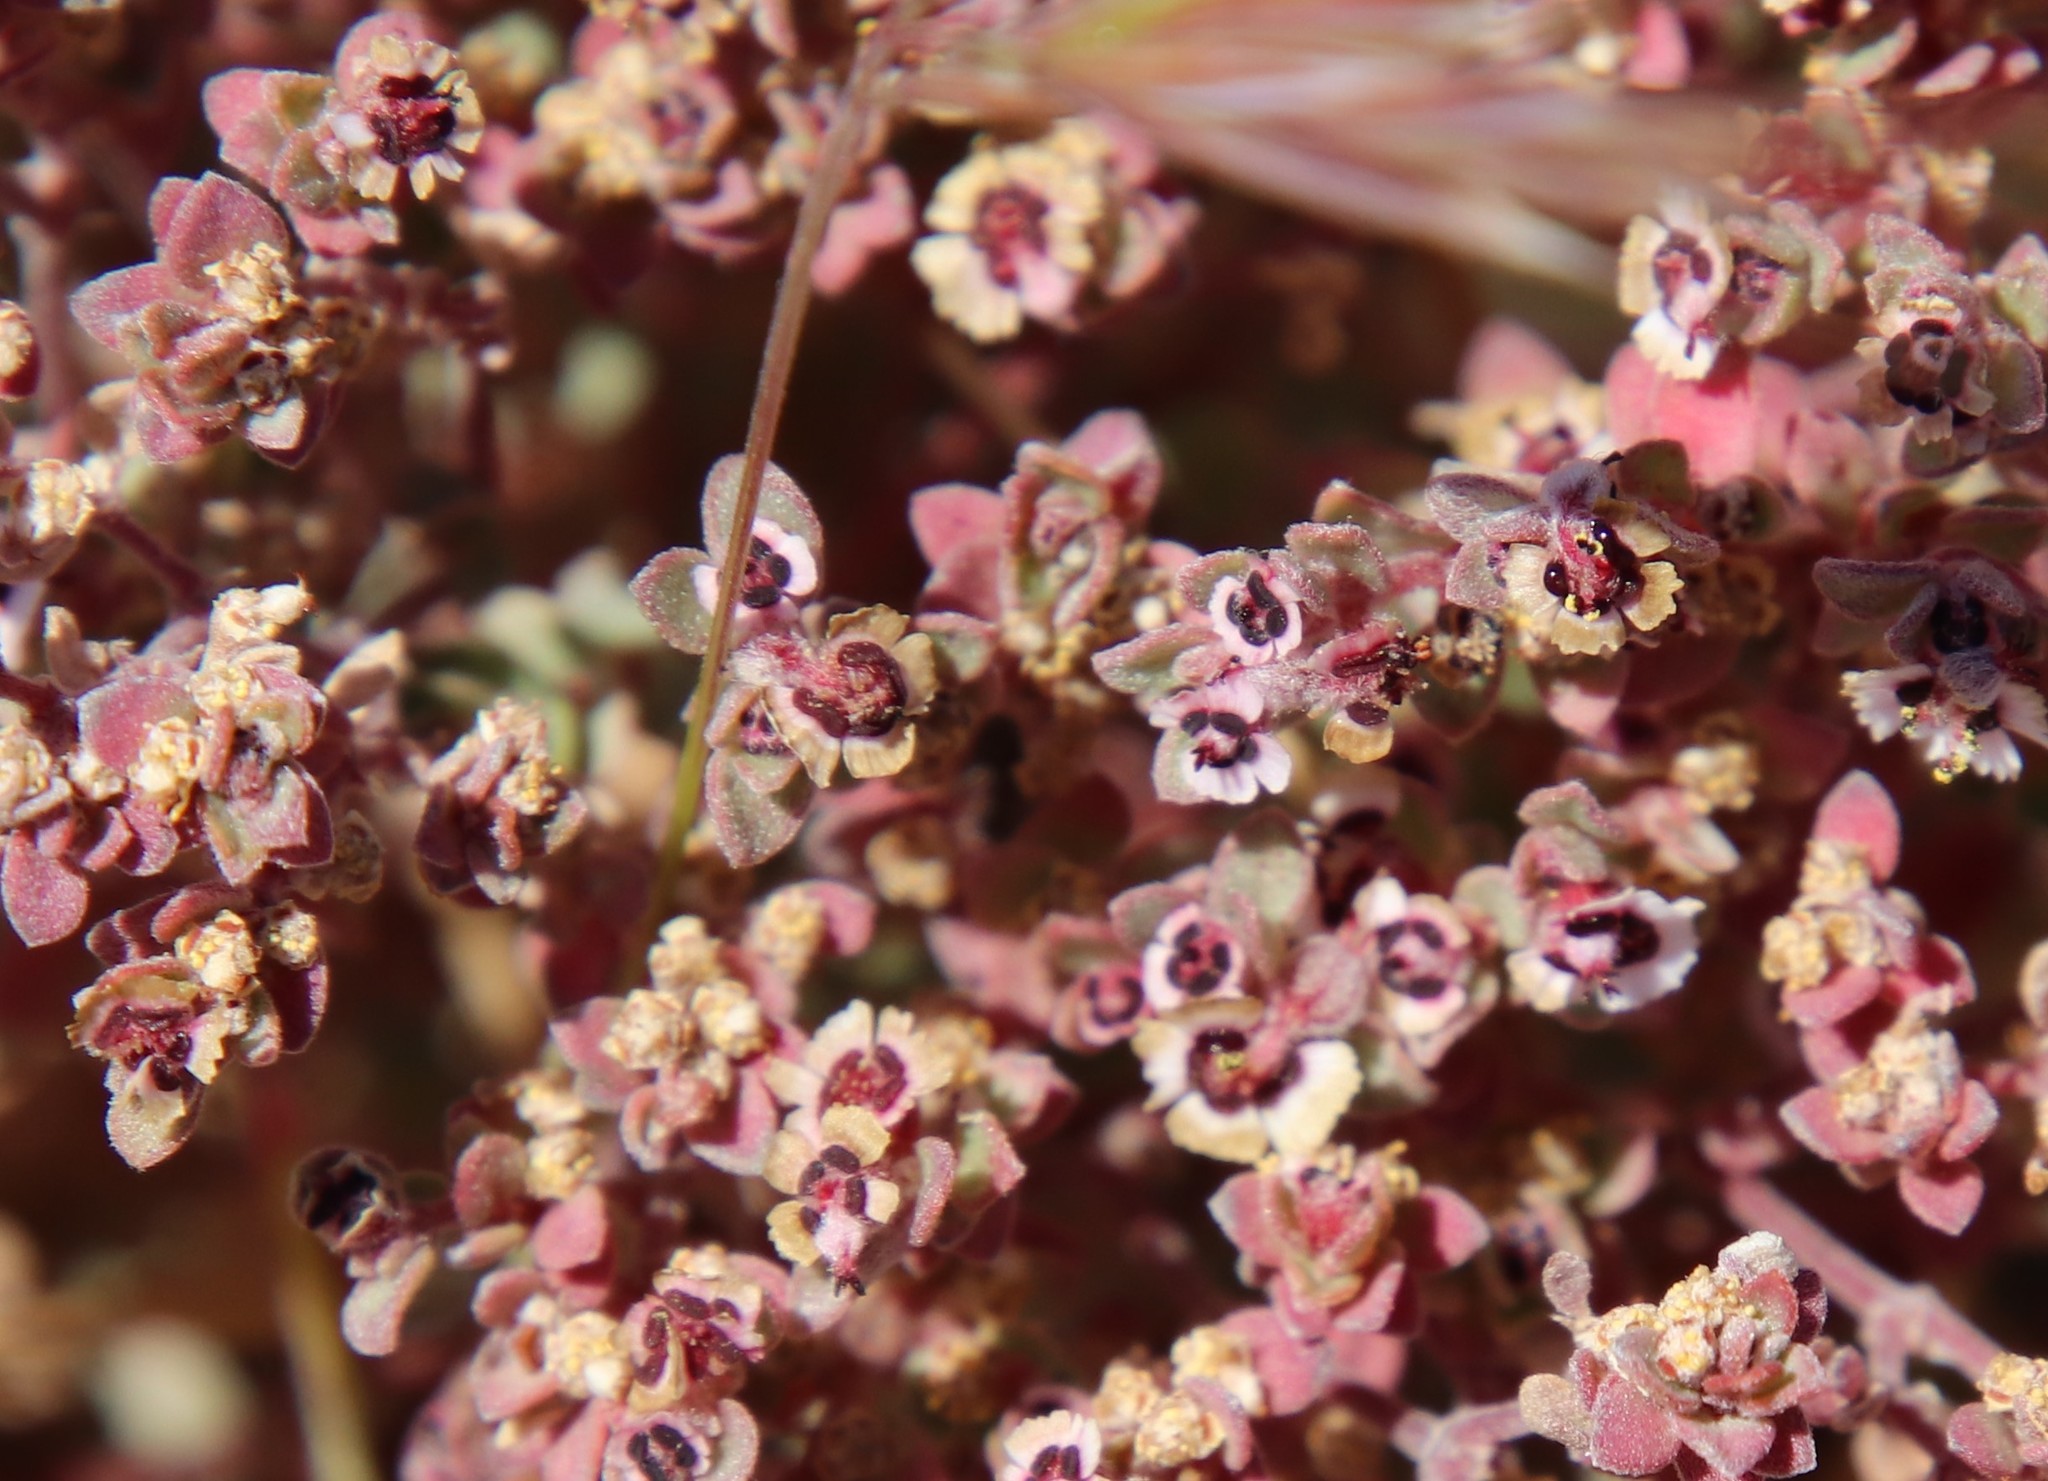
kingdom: Plantae
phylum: Tracheophyta
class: Magnoliopsida
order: Malpighiales
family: Euphorbiaceae
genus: Euphorbia
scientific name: Euphorbia melanadenia
